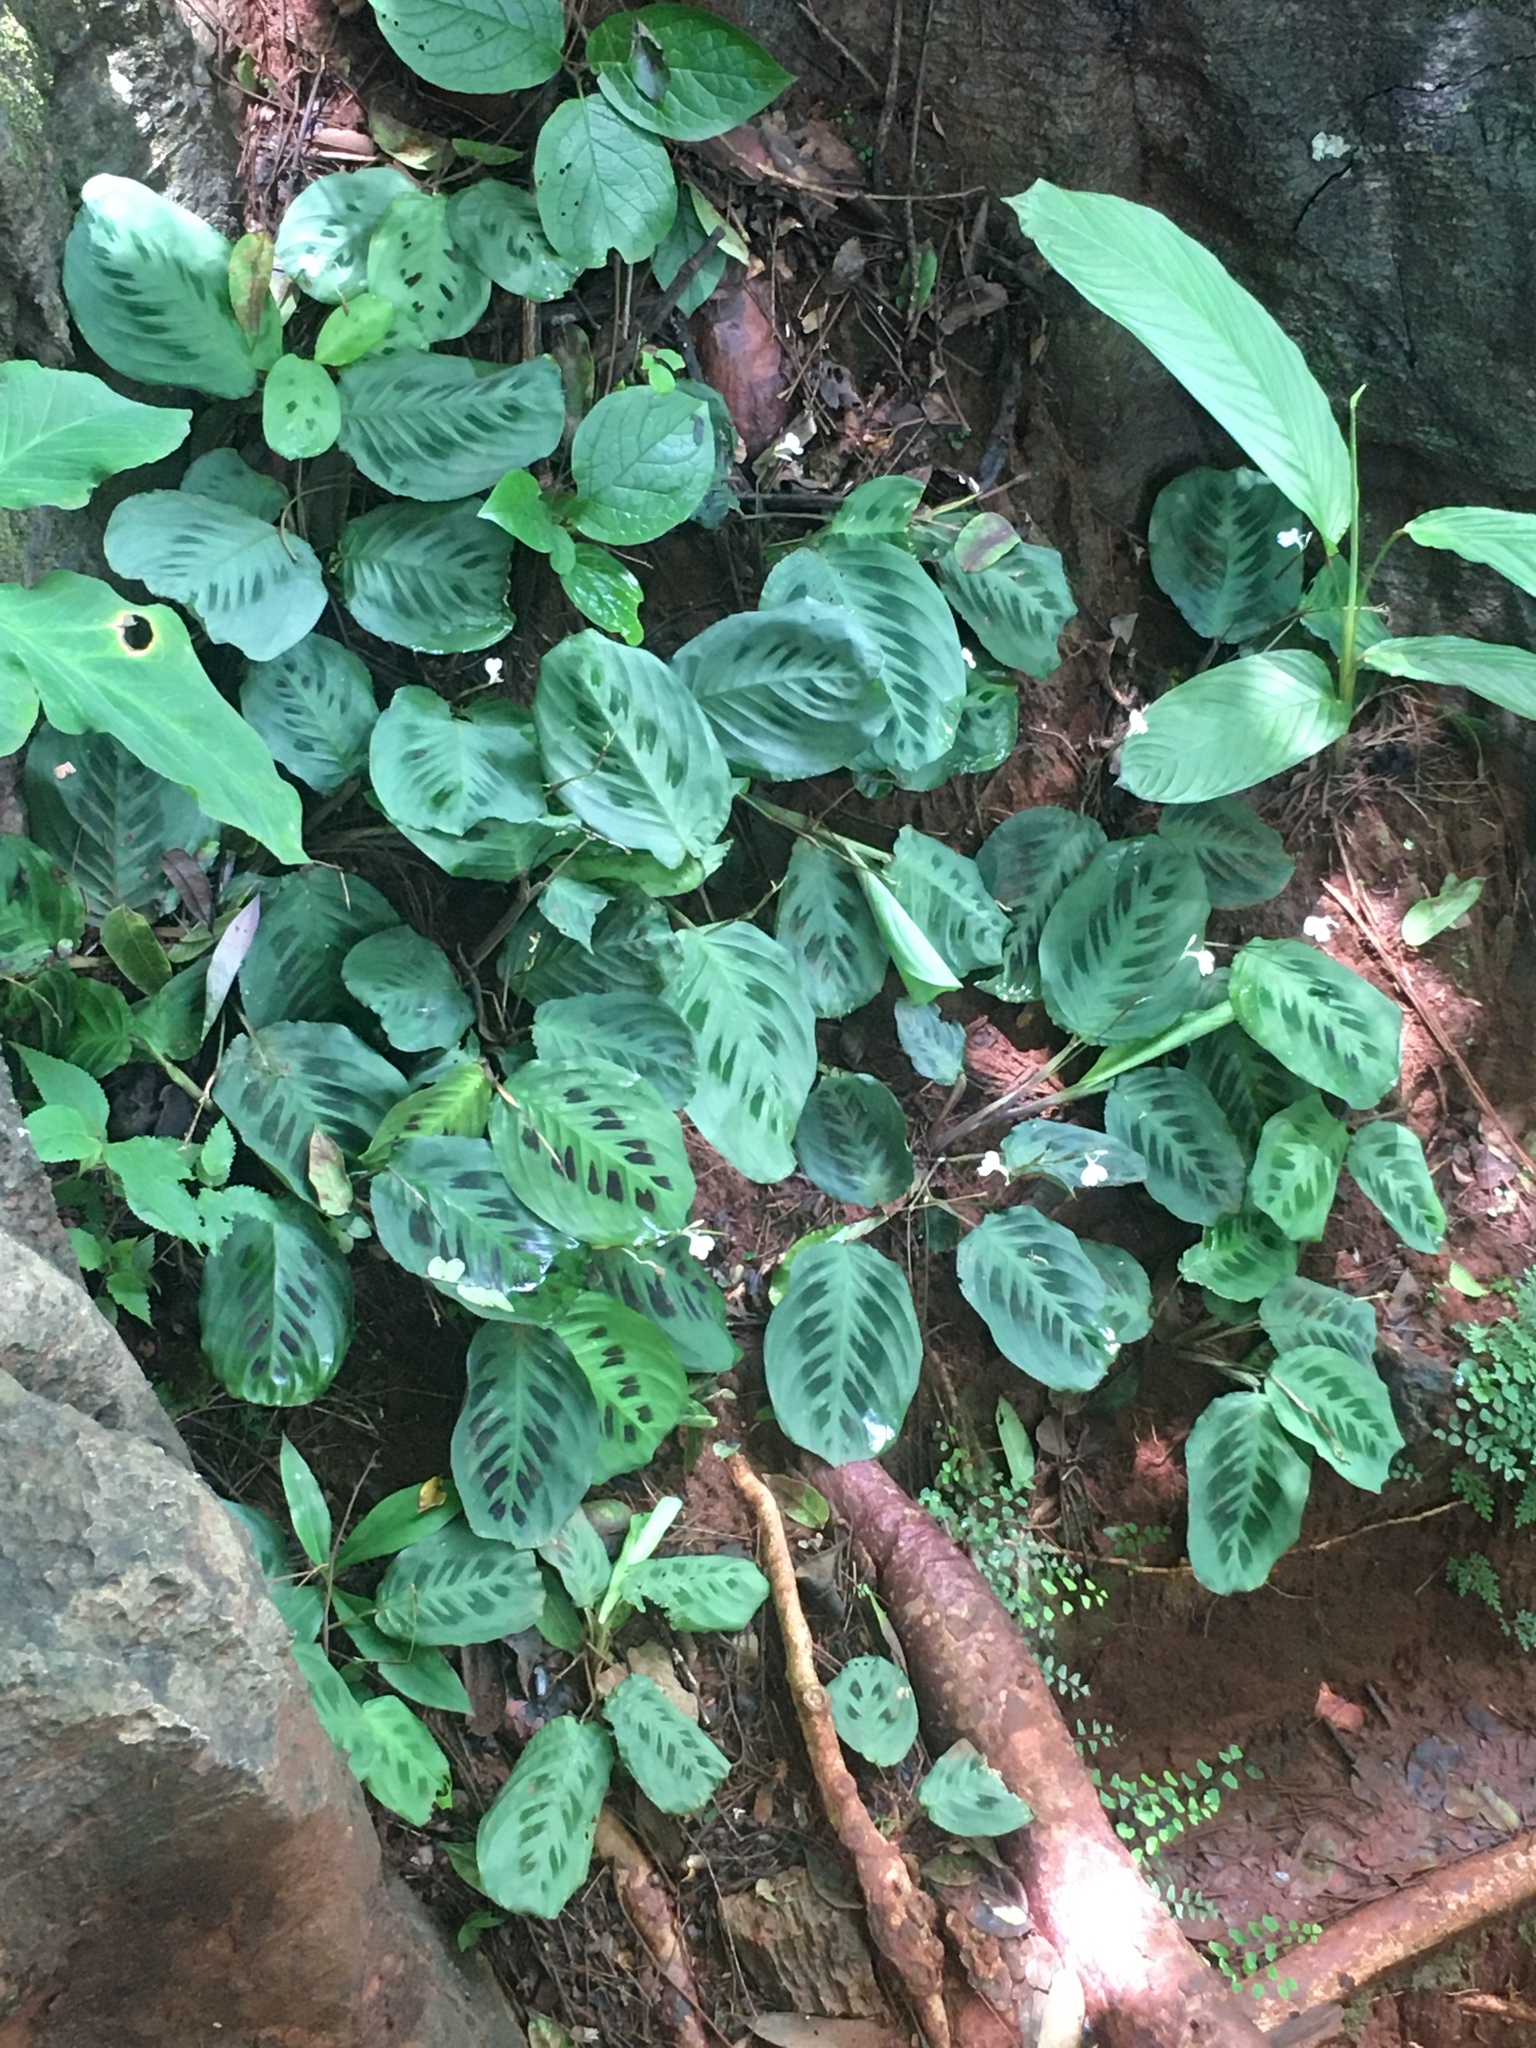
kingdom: Plantae
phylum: Tracheophyta
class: Liliopsida
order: Zingiberales
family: Marantaceae
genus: Maranta
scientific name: Maranta leuconeura
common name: Ten-commandments
